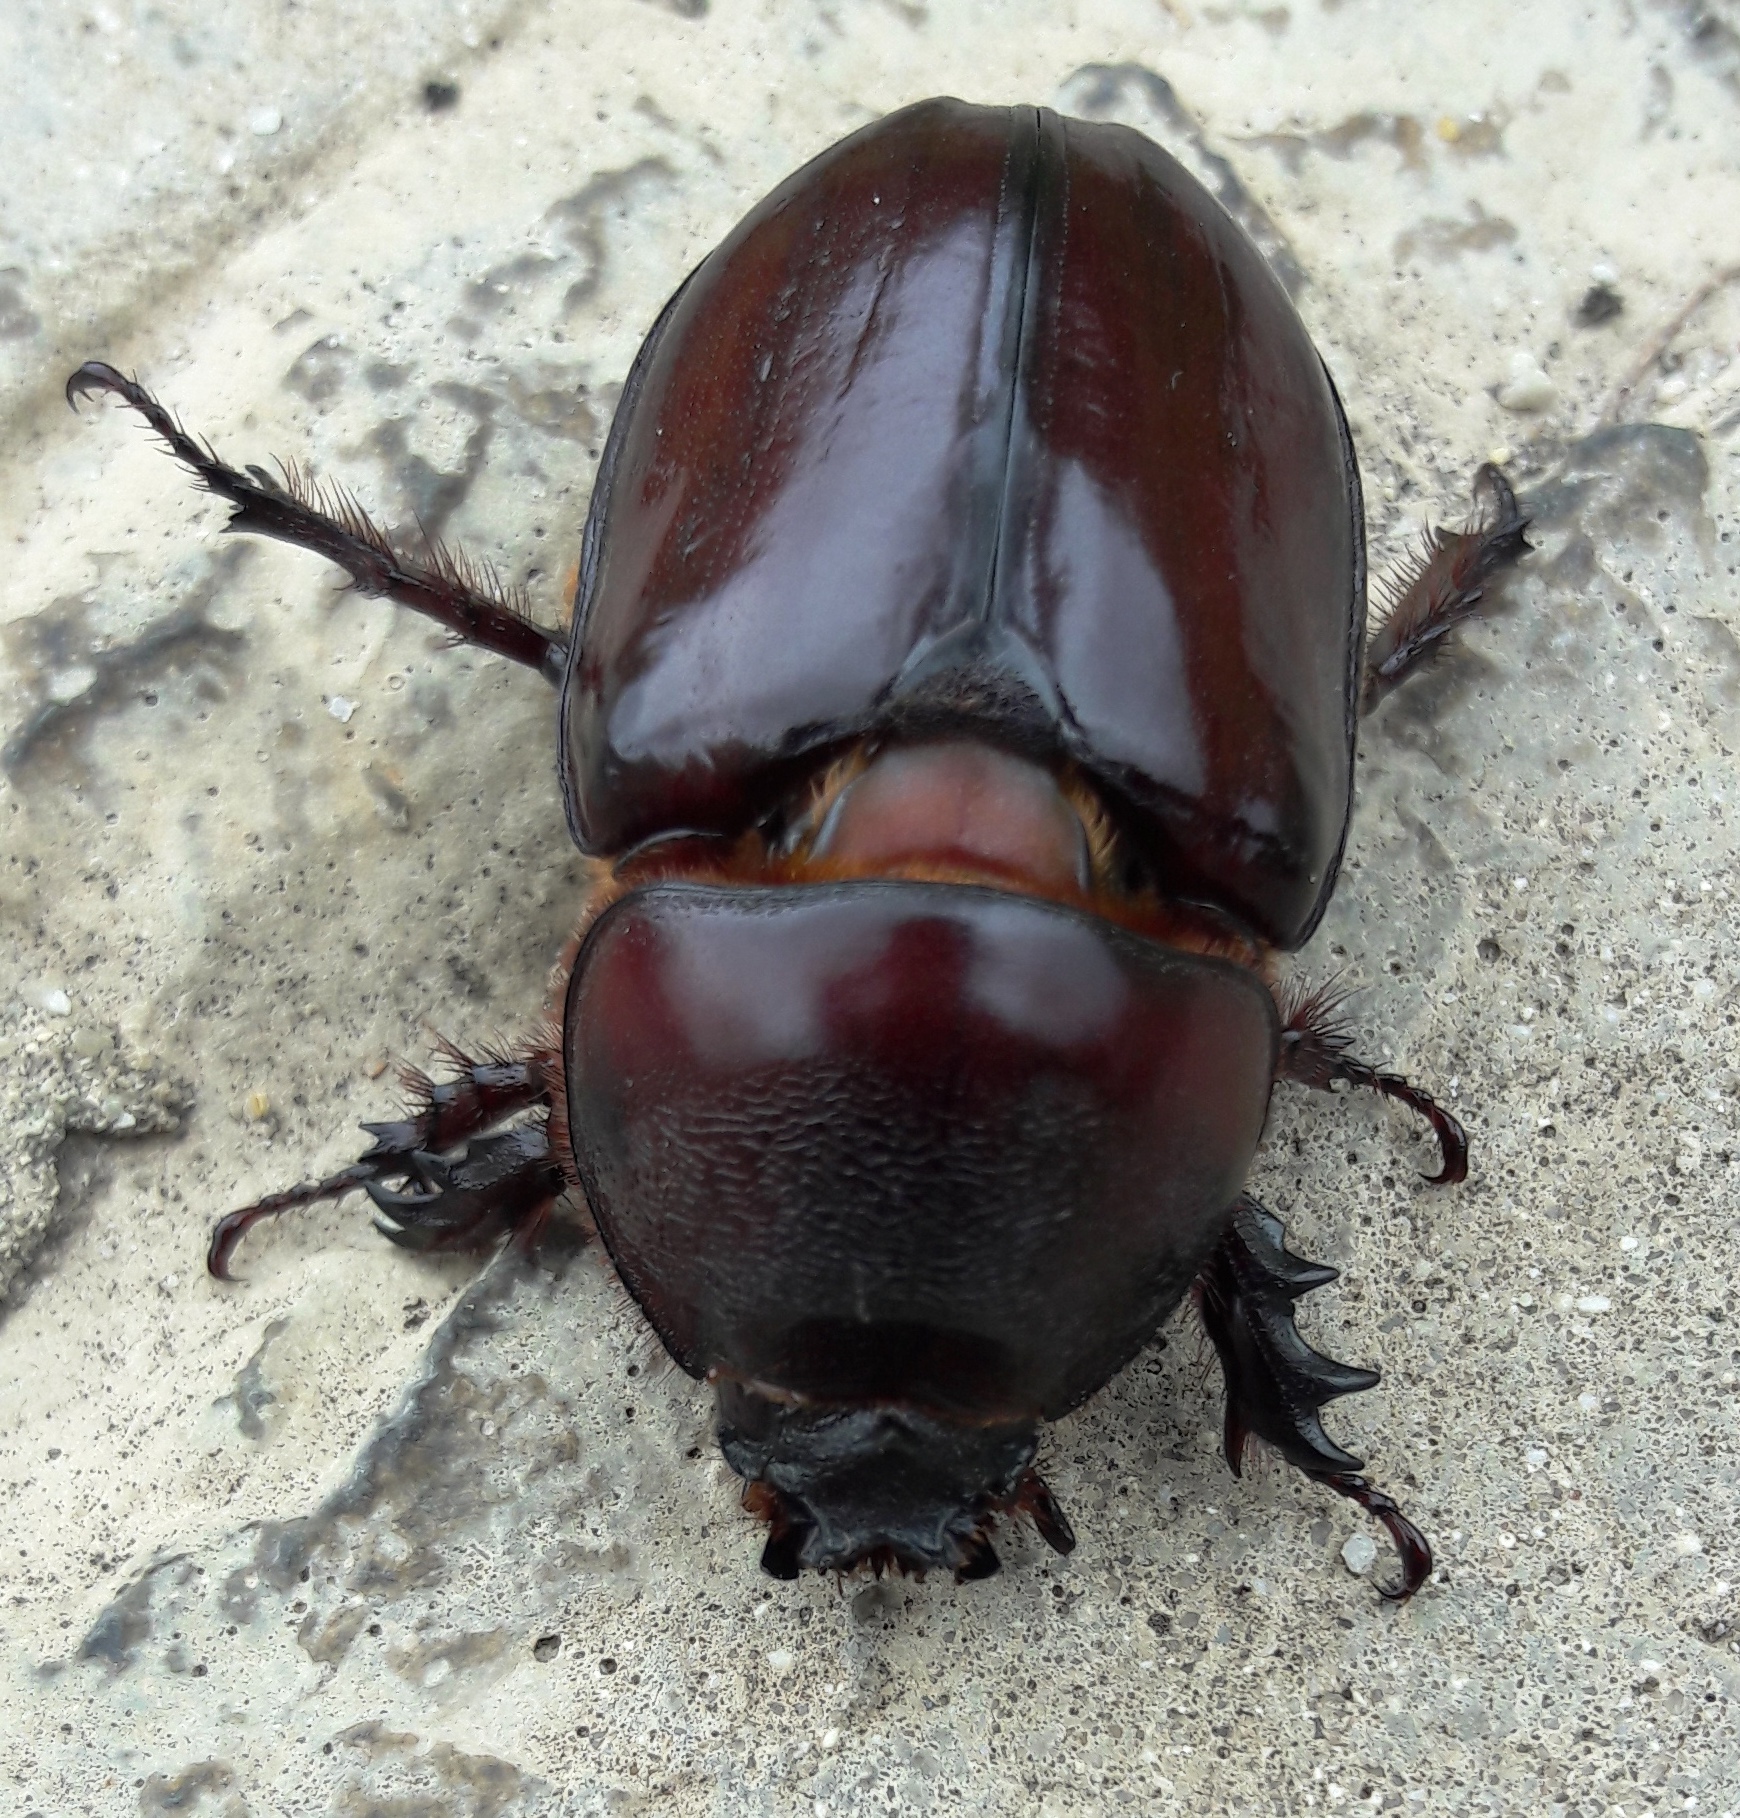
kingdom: Animalia
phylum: Arthropoda
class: Insecta
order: Coleoptera
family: Scarabaeidae
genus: Oryctes
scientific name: Oryctes boas
